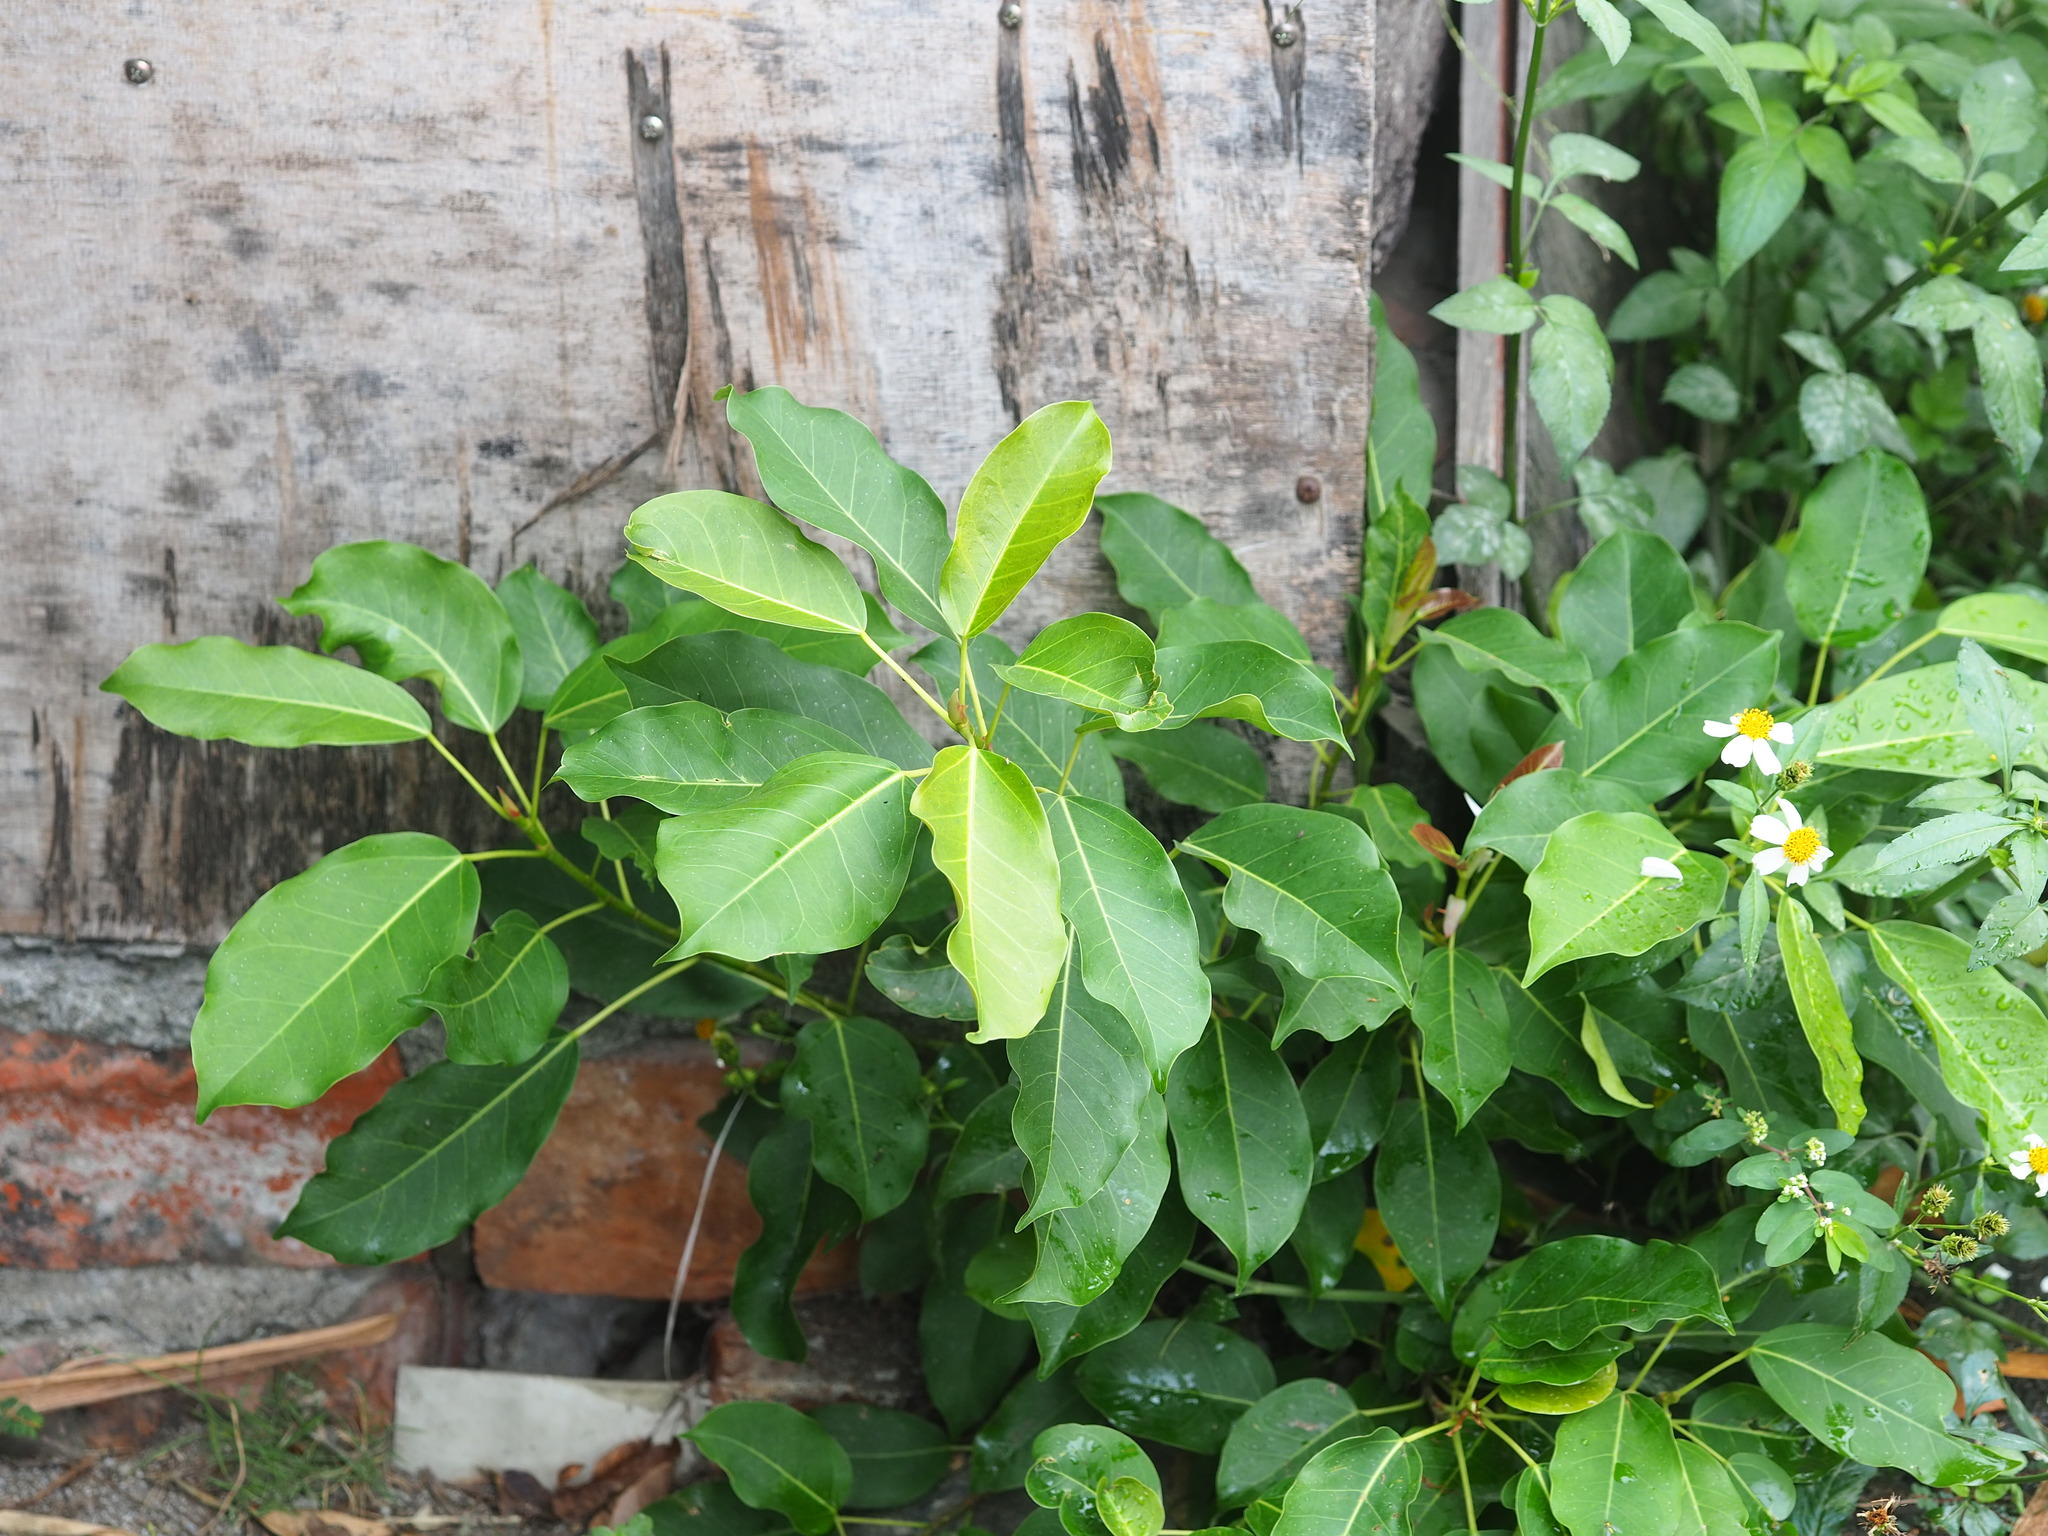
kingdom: Plantae
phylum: Tracheophyta
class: Magnoliopsida
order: Rosales
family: Moraceae
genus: Ficus
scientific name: Ficus subpisocarpa
